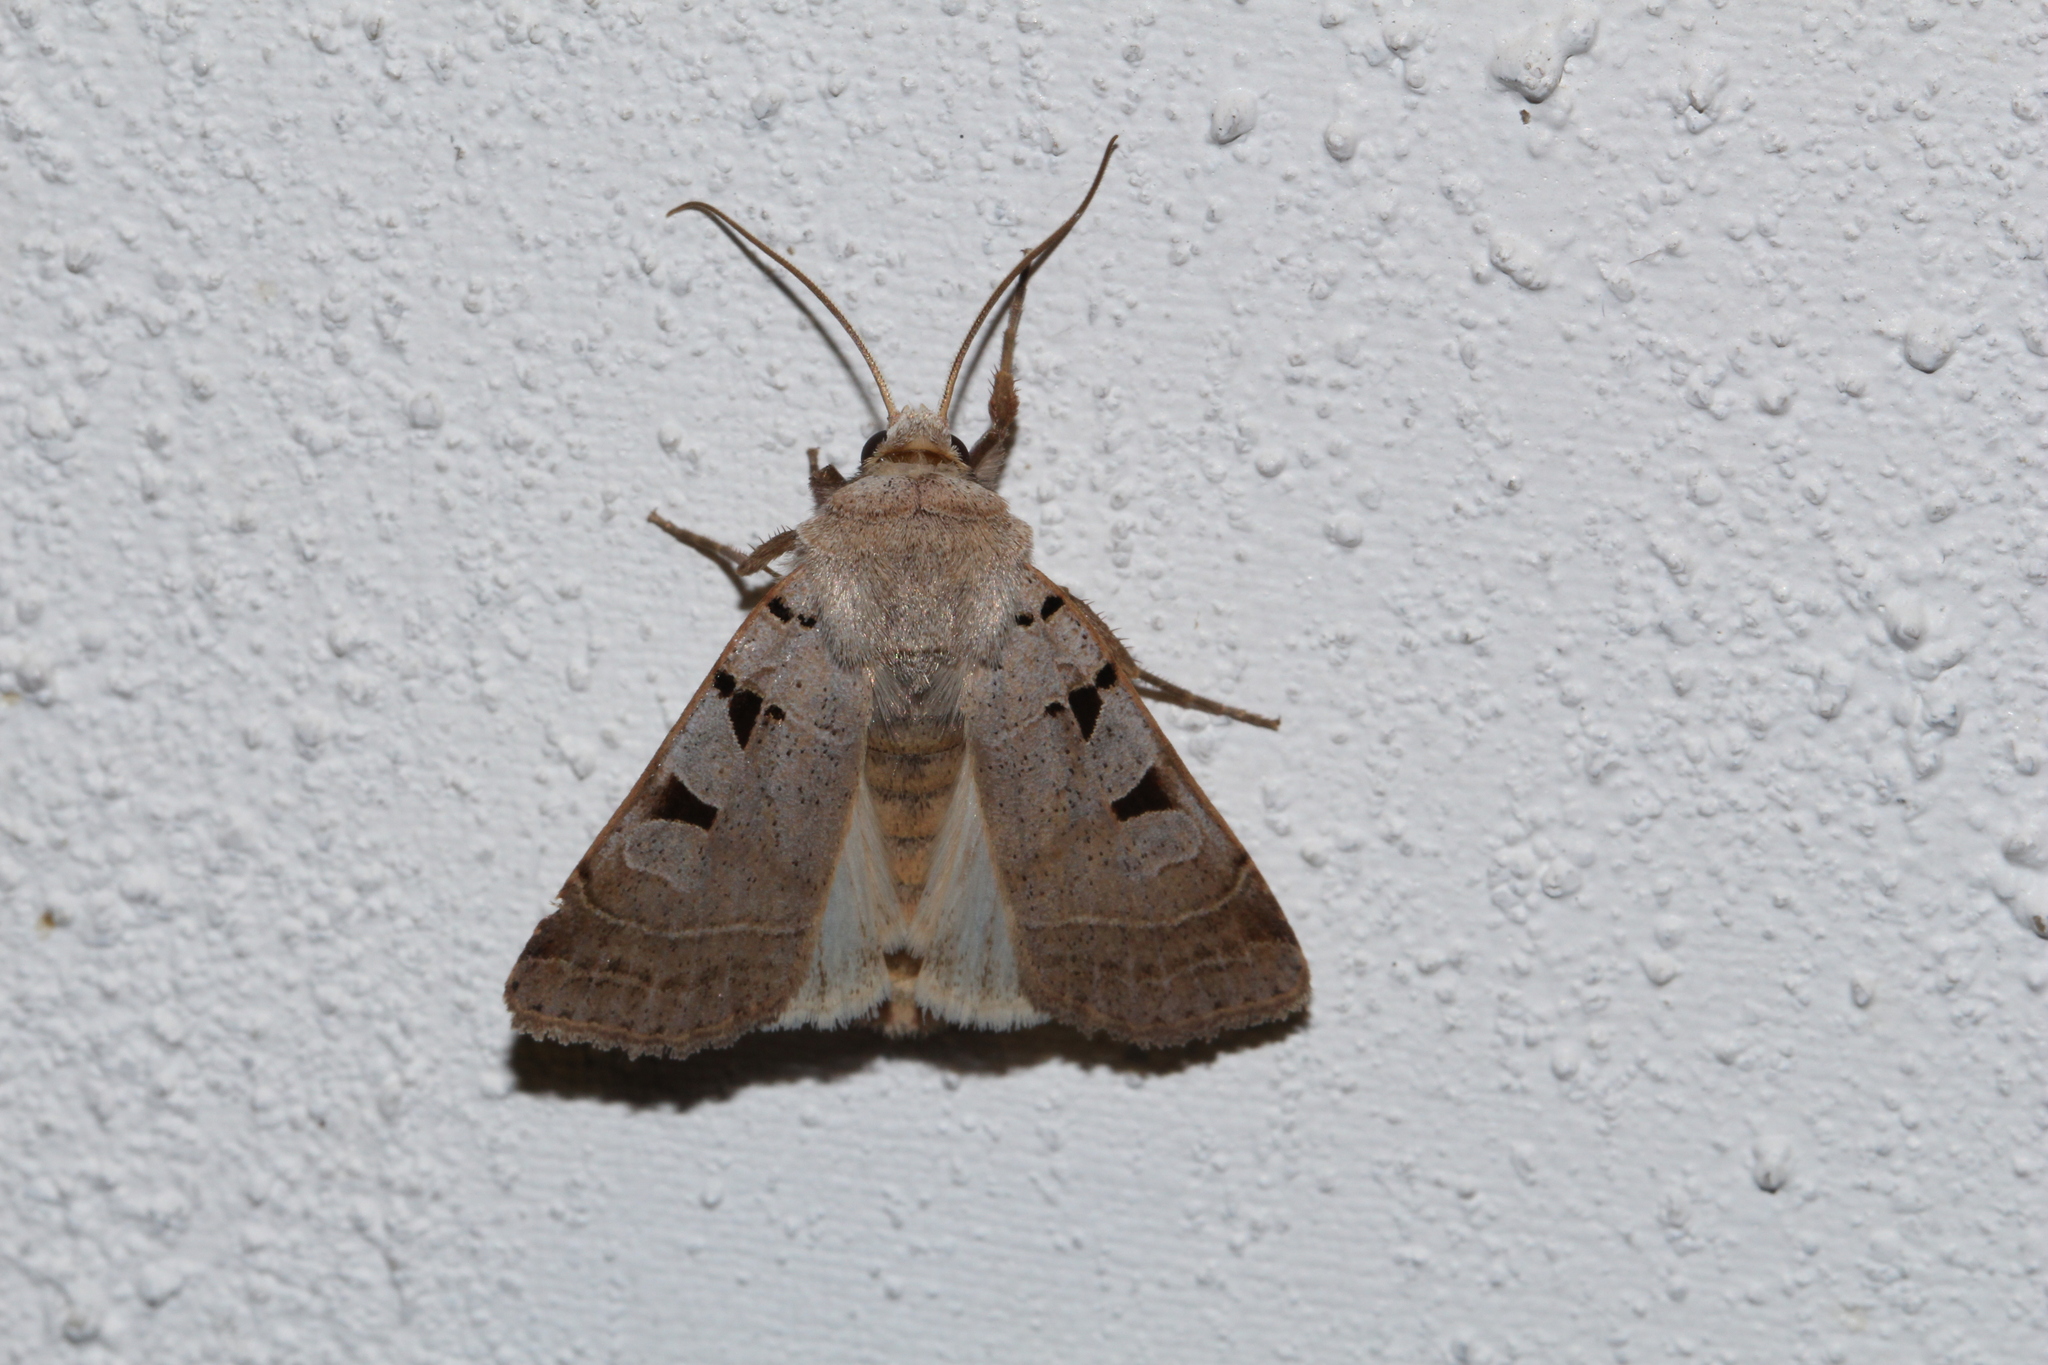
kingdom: Animalia
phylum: Arthropoda
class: Insecta
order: Lepidoptera
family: Noctuidae
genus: Eugnorisma
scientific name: Eugnorisma glareosa
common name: Autumnal rustic
